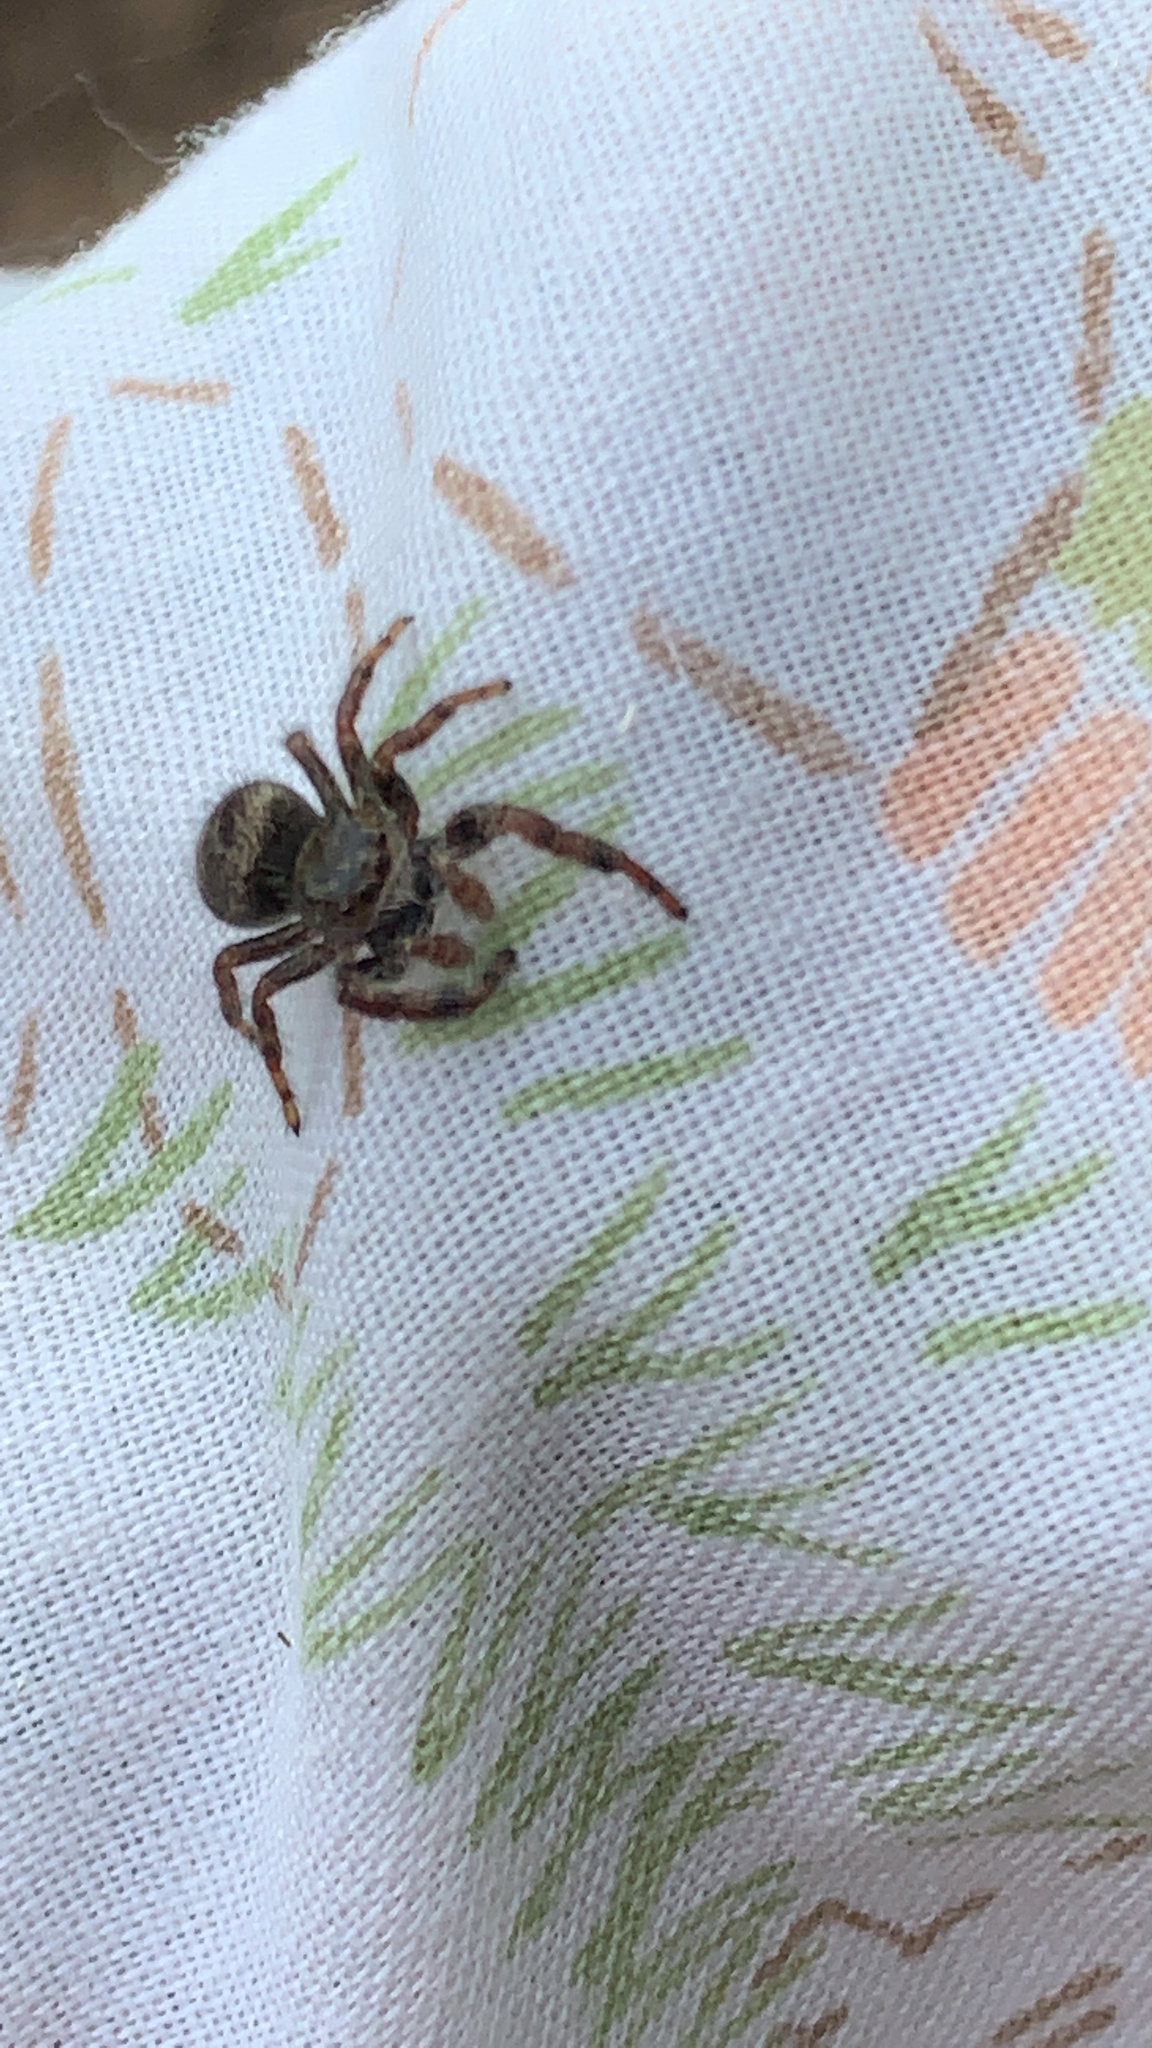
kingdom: Animalia
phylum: Arthropoda
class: Arachnida
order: Araneae
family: Salticidae
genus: Phidippus
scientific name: Phidippus princeps
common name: Grayish jumping spider
